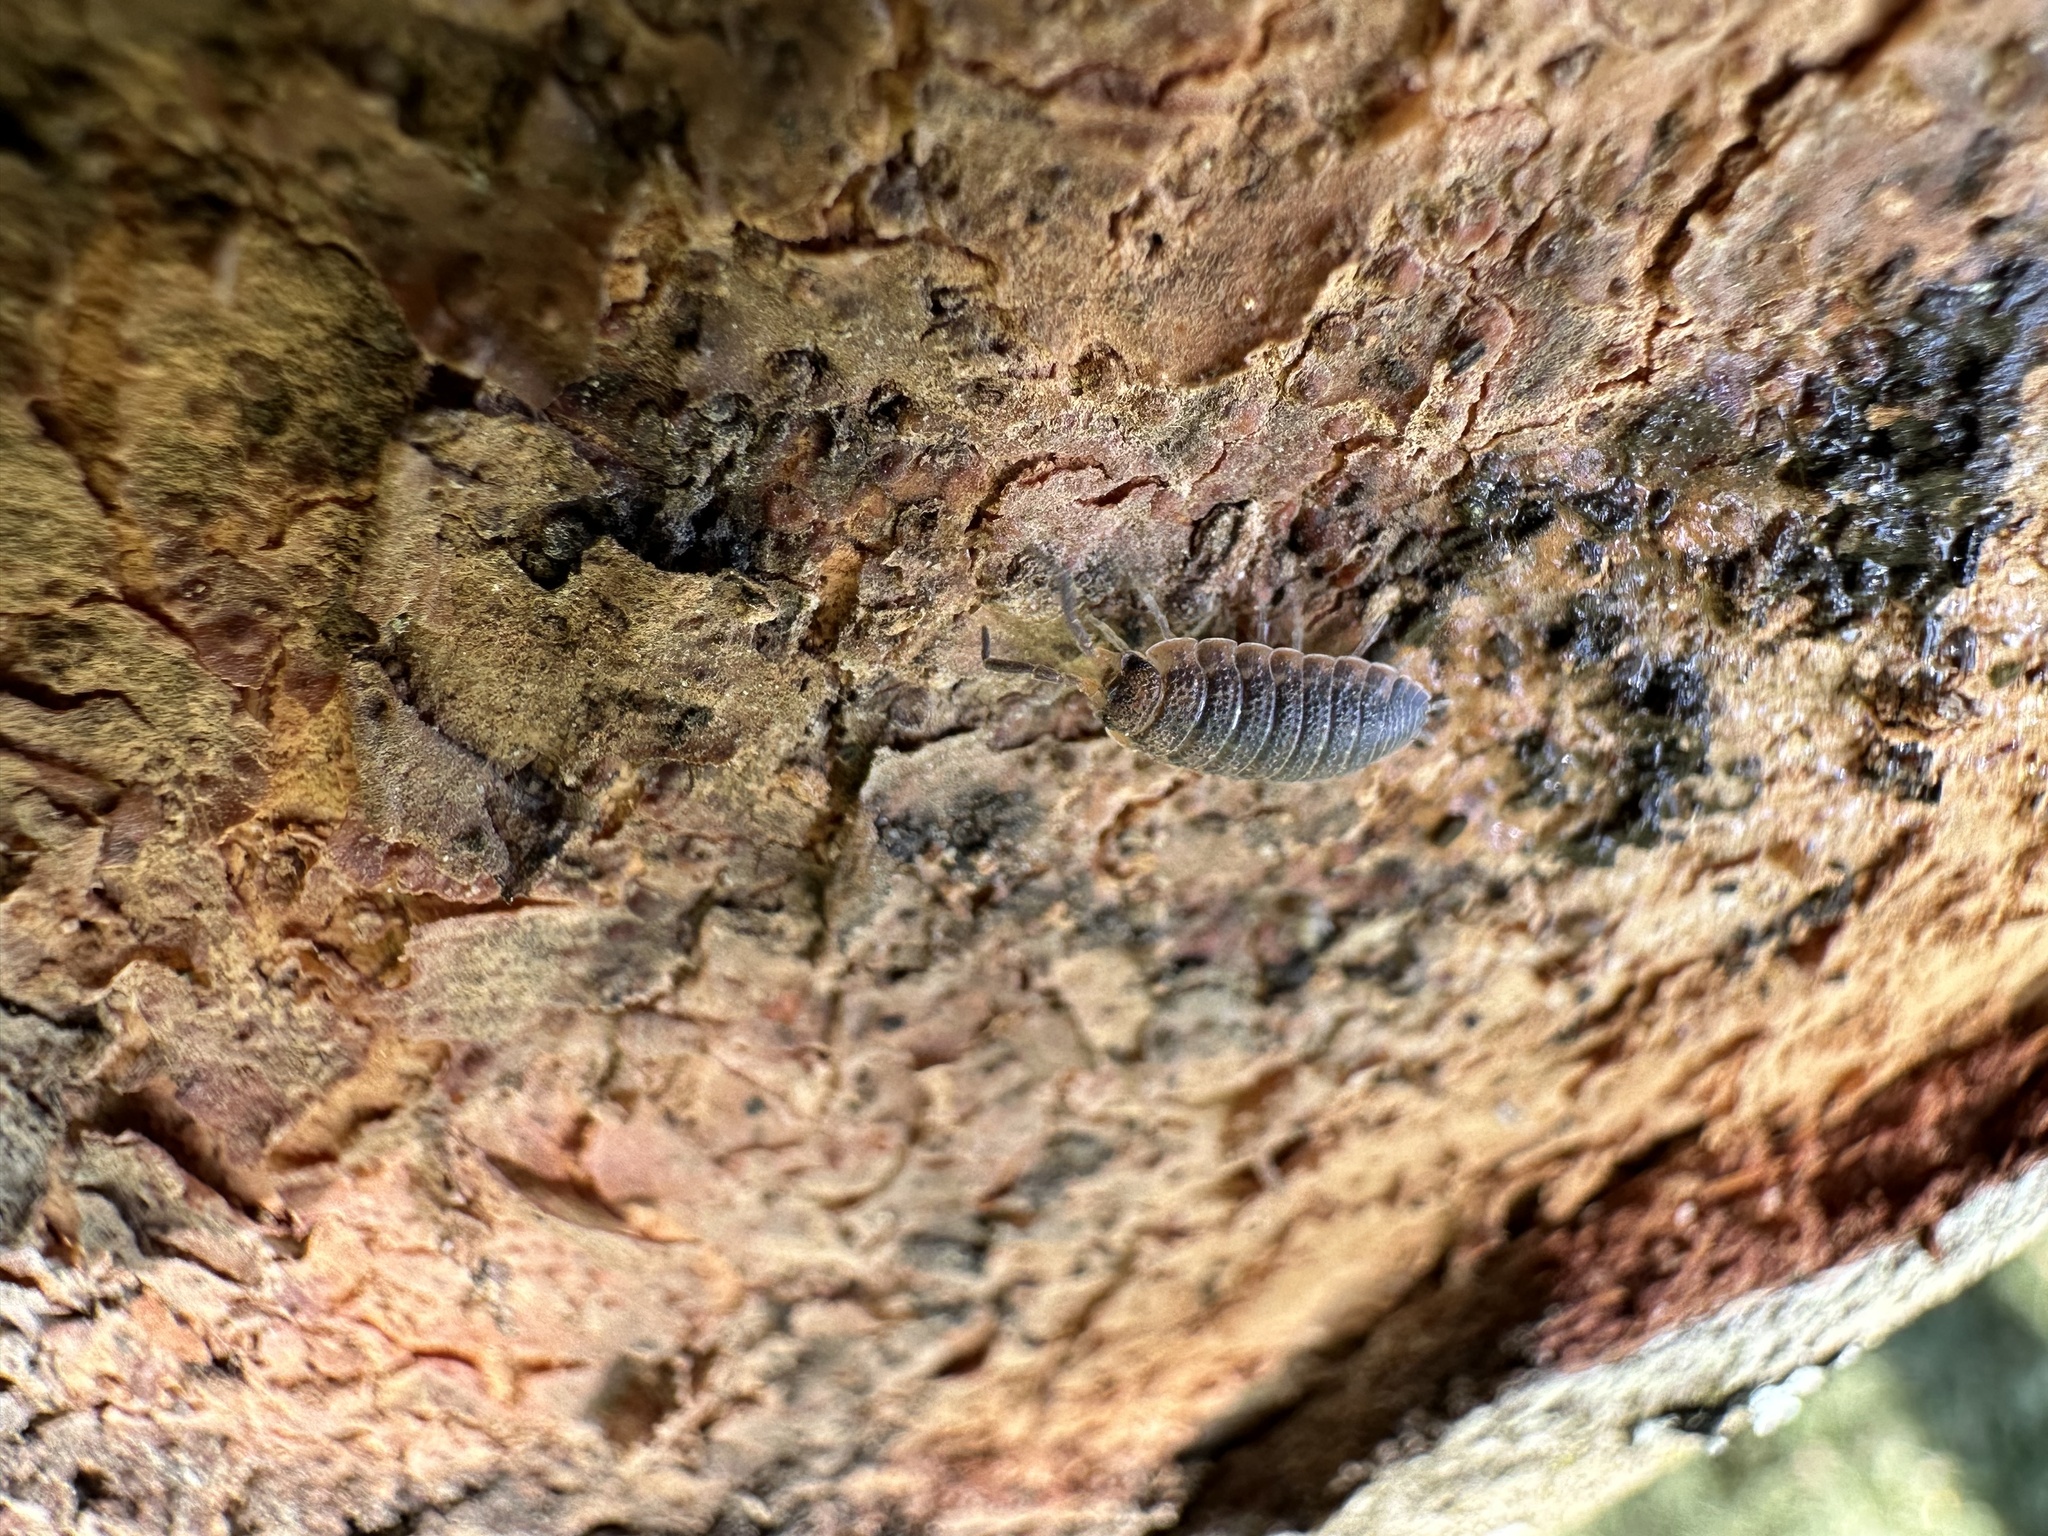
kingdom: Animalia
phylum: Arthropoda
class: Malacostraca
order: Isopoda
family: Porcellionidae
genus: Porcellio
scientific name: Porcellio scaber
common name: Common rough woodlouse
